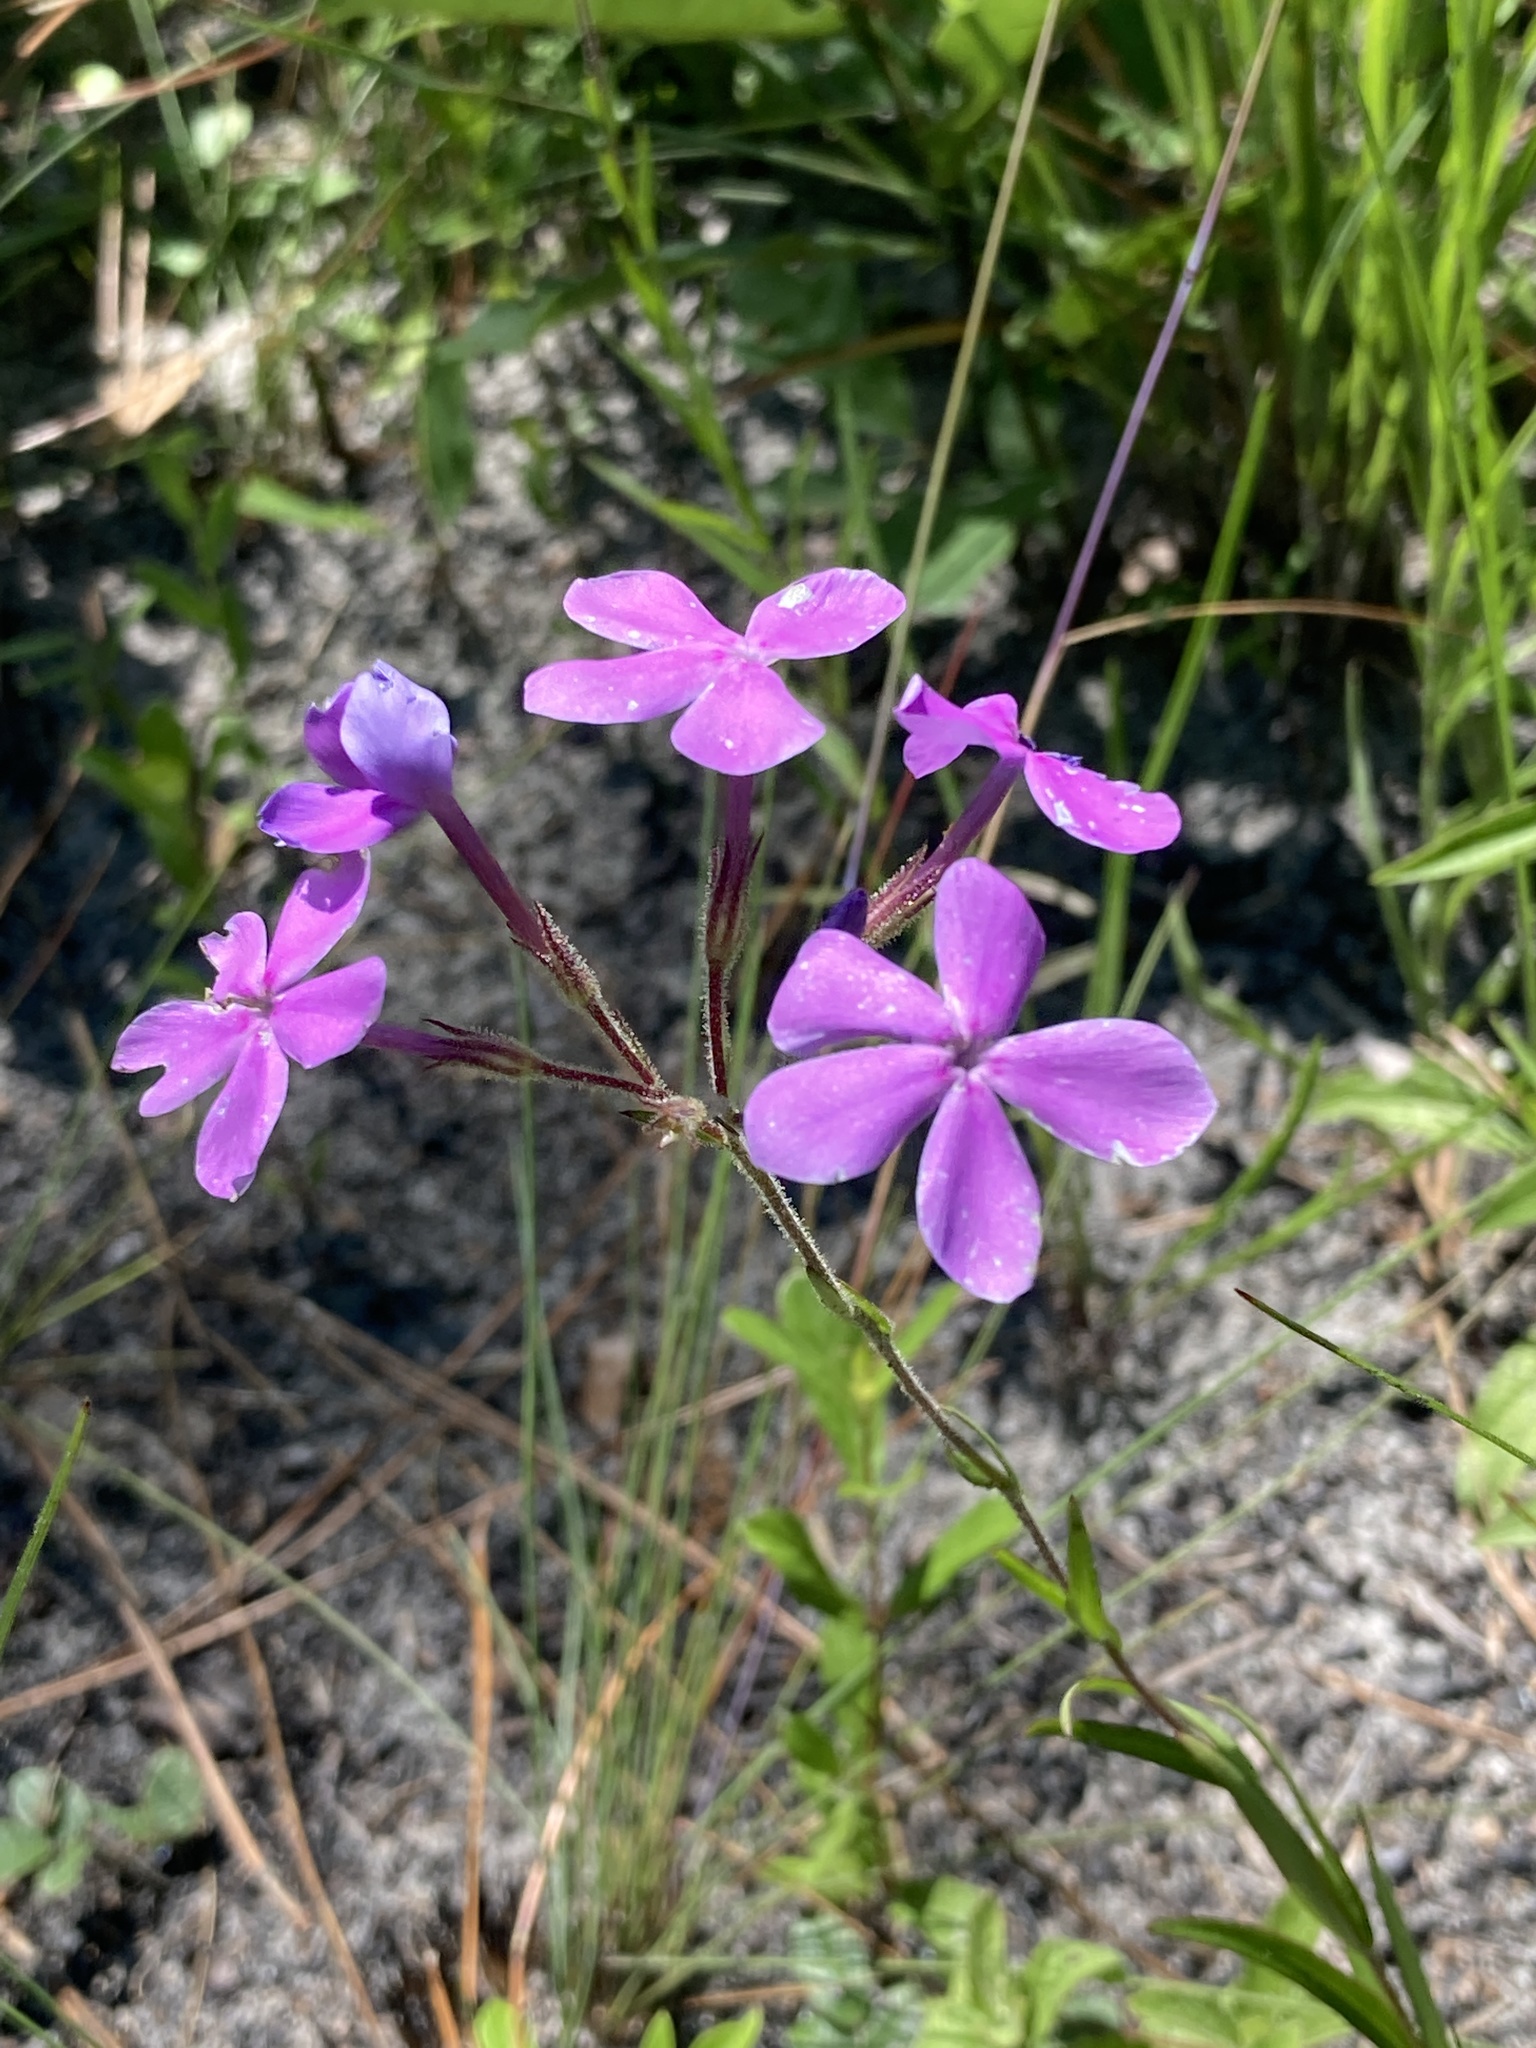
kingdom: Plantae
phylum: Tracheophyta
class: Magnoliopsida
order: Ericales
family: Polemoniaceae
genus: Phlox
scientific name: Phlox pilosa
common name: Prairie phlox
